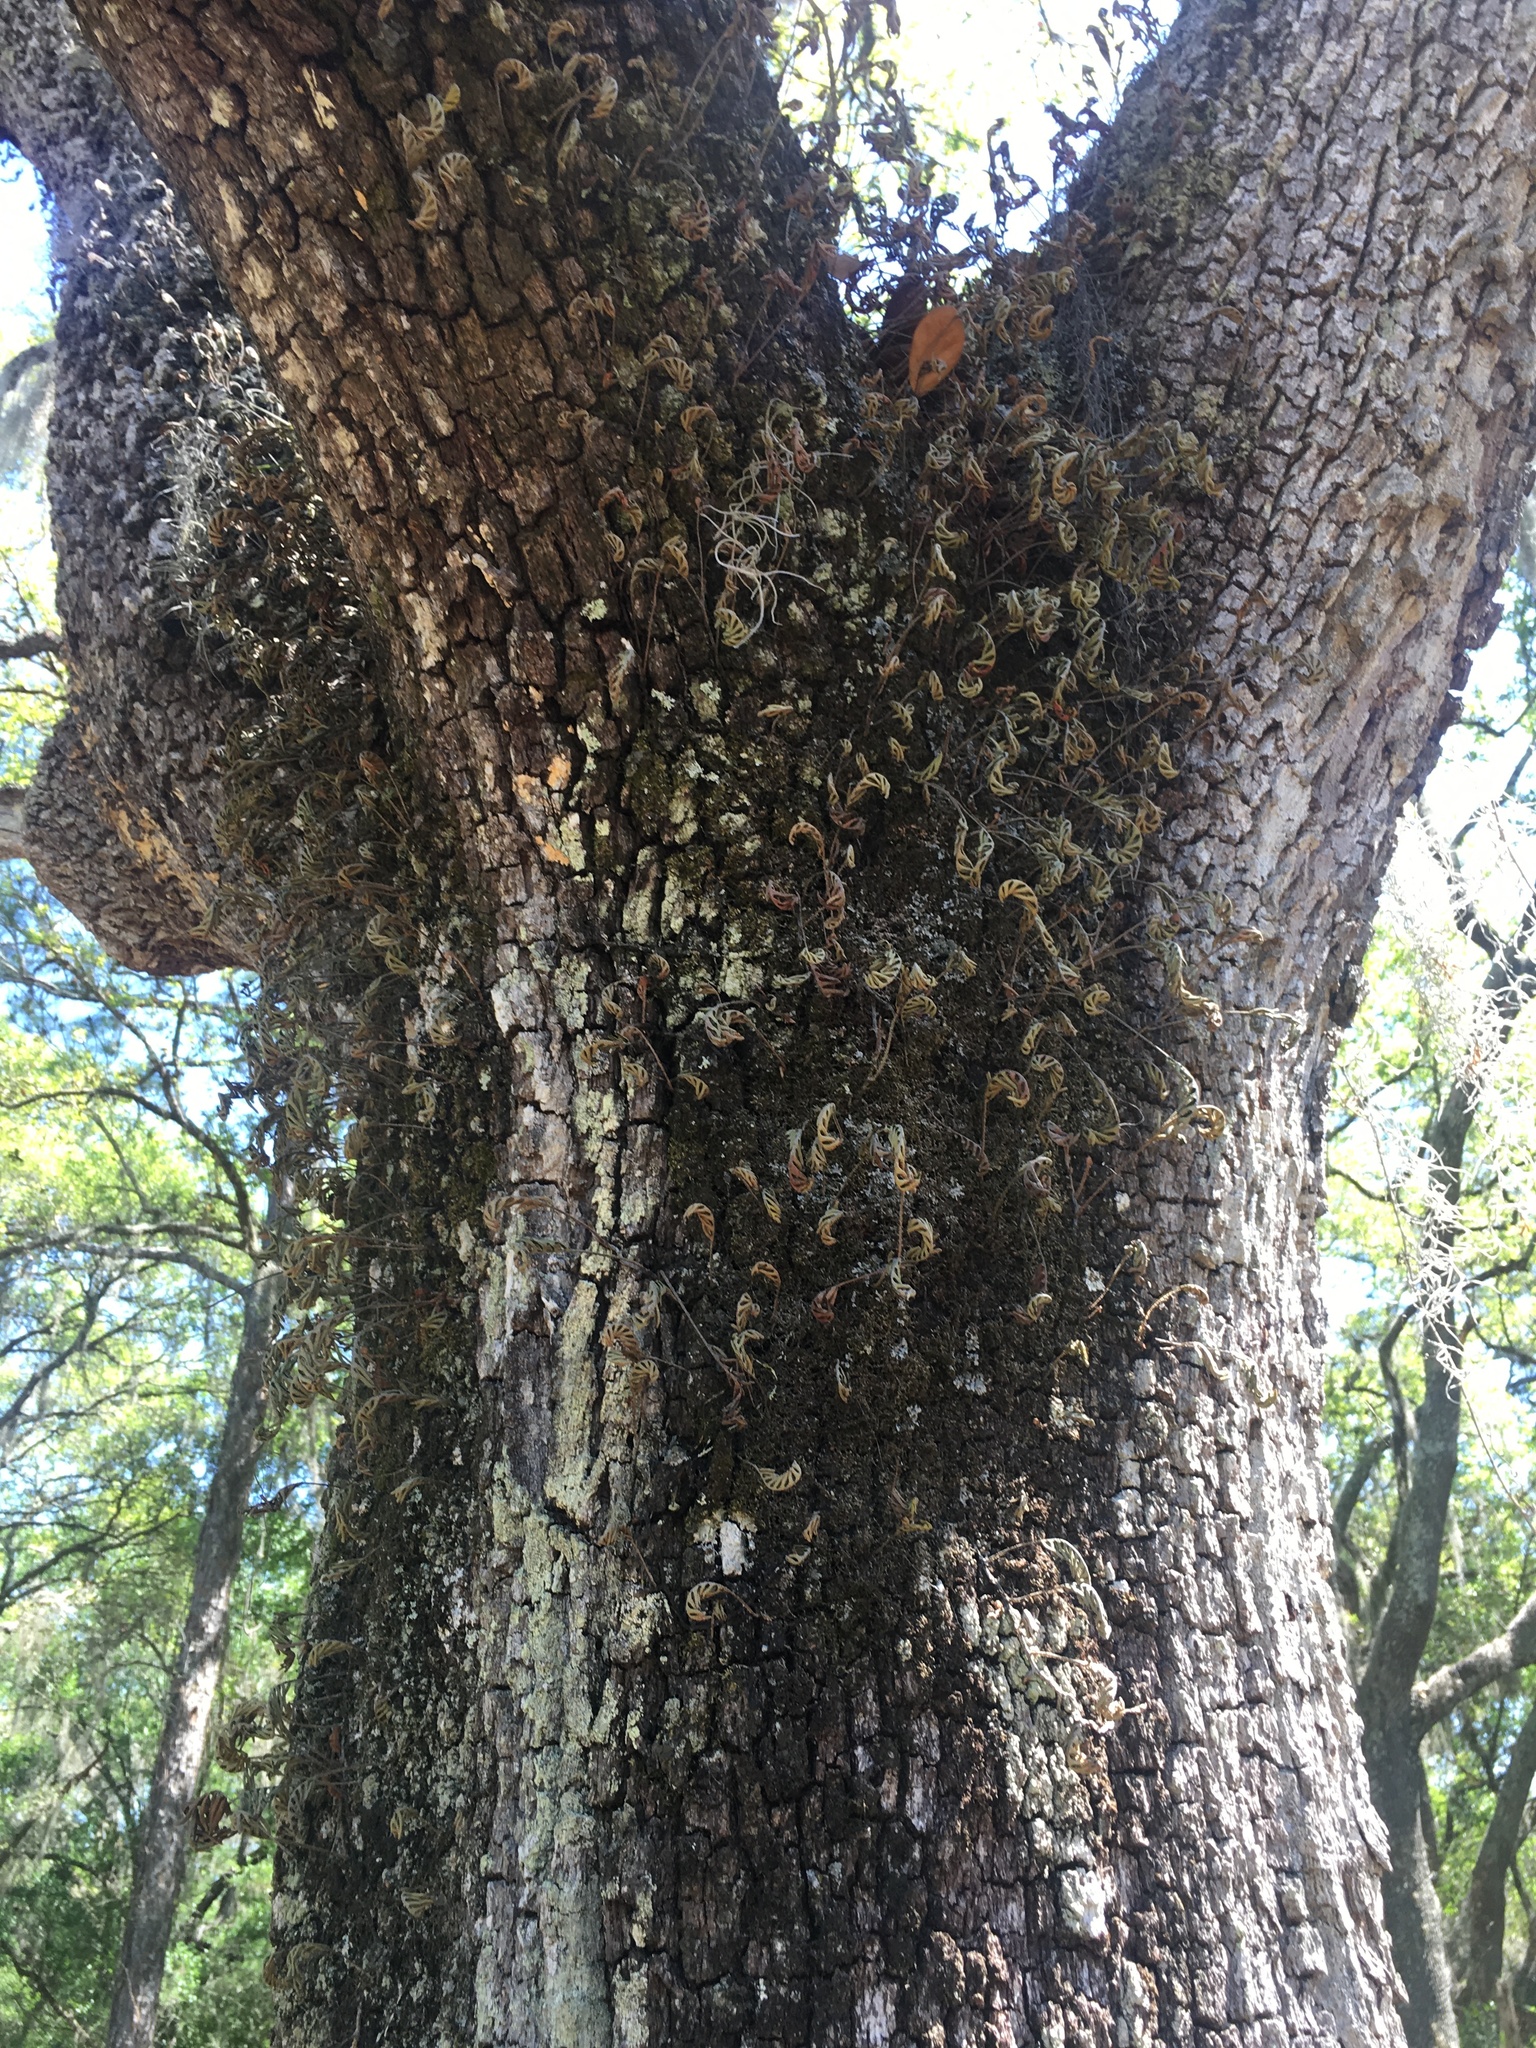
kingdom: Plantae
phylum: Tracheophyta
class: Polypodiopsida
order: Polypodiales
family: Polypodiaceae
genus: Pleopeltis
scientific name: Pleopeltis michauxiana
